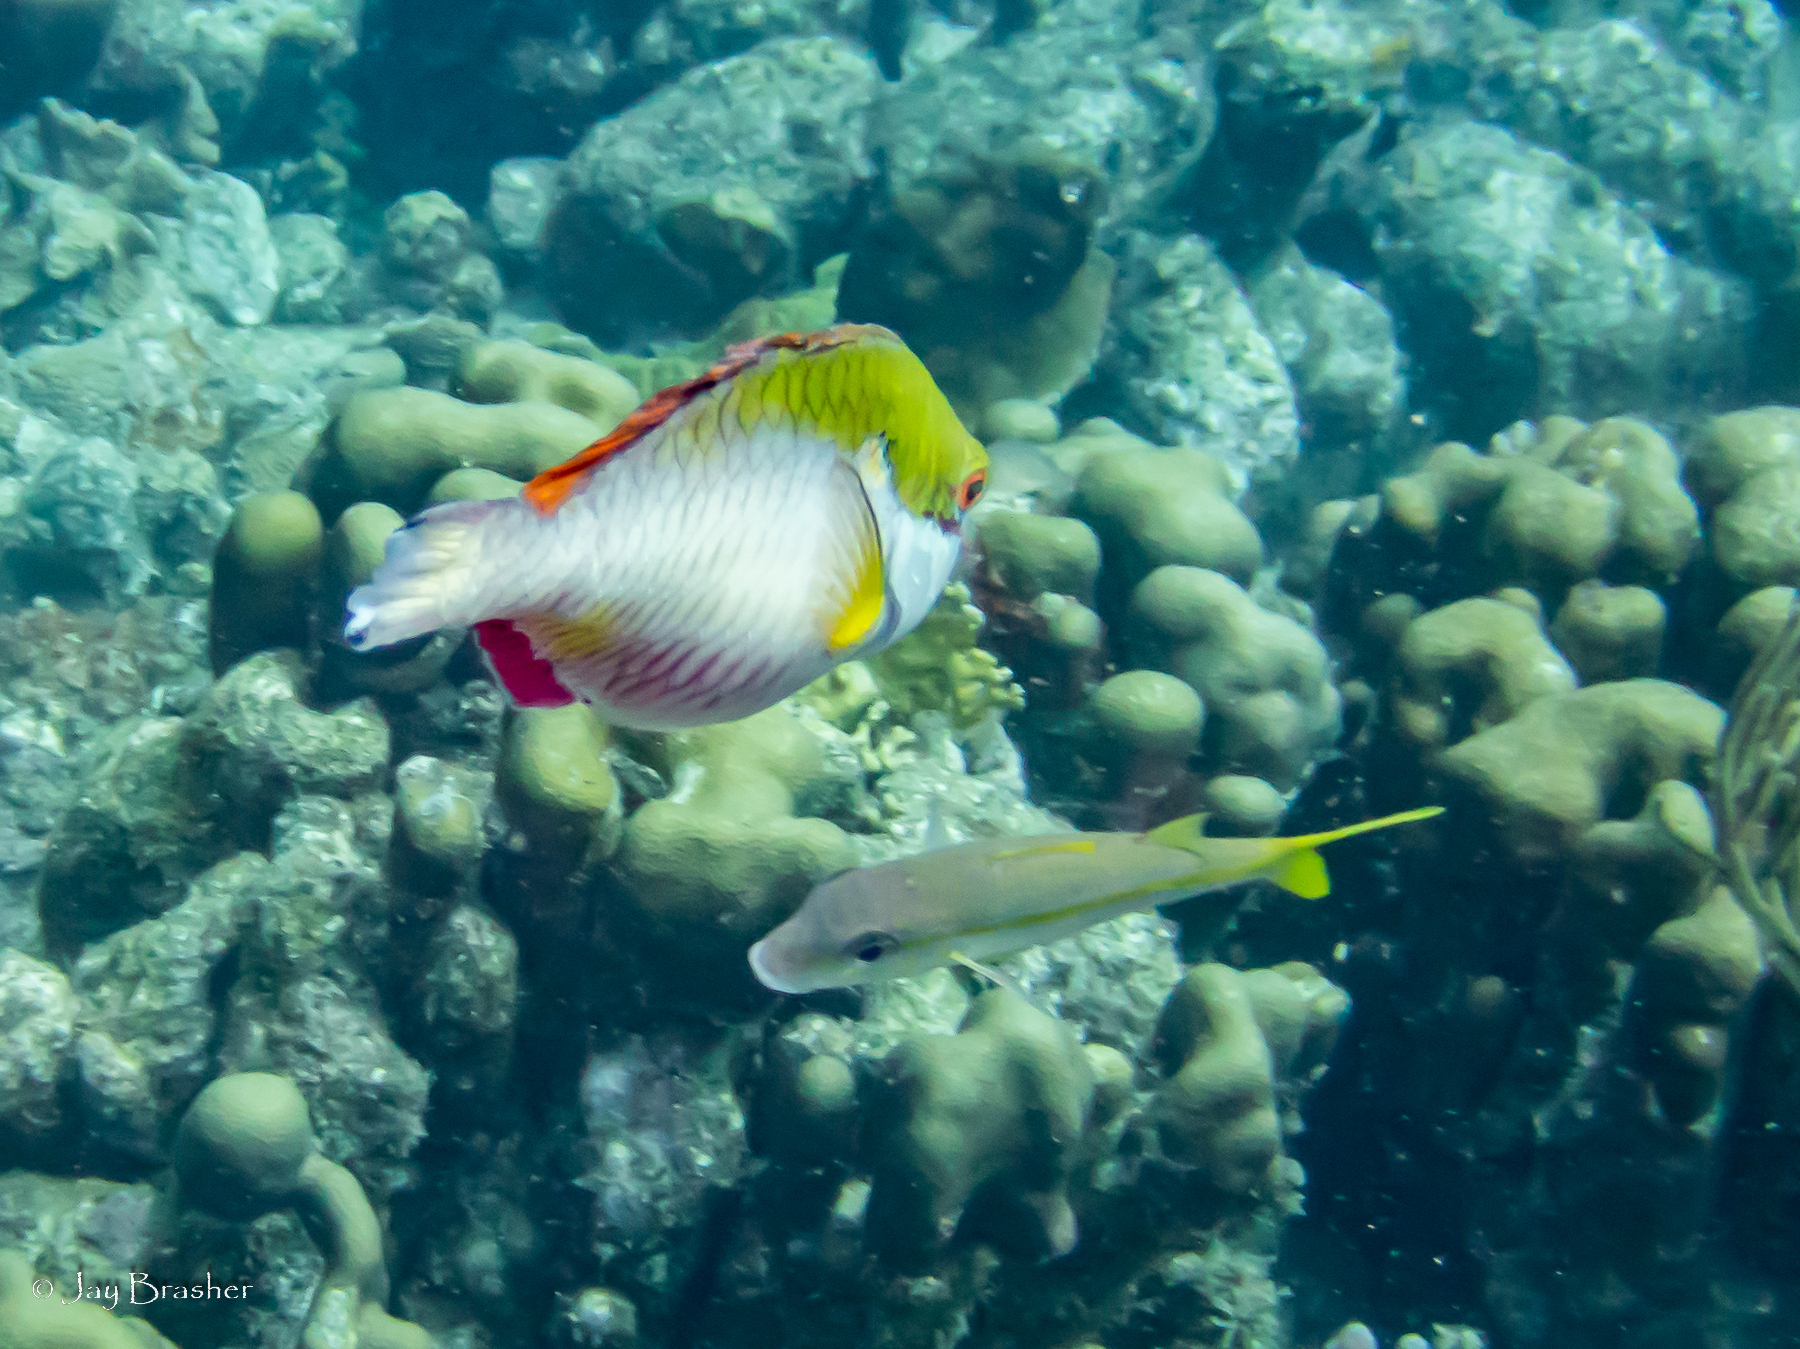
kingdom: Animalia
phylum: Chordata
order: Perciformes
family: Mullidae
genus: Mulloidichthys
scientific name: Mulloidichthys martinicus
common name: Yellow goatfish
